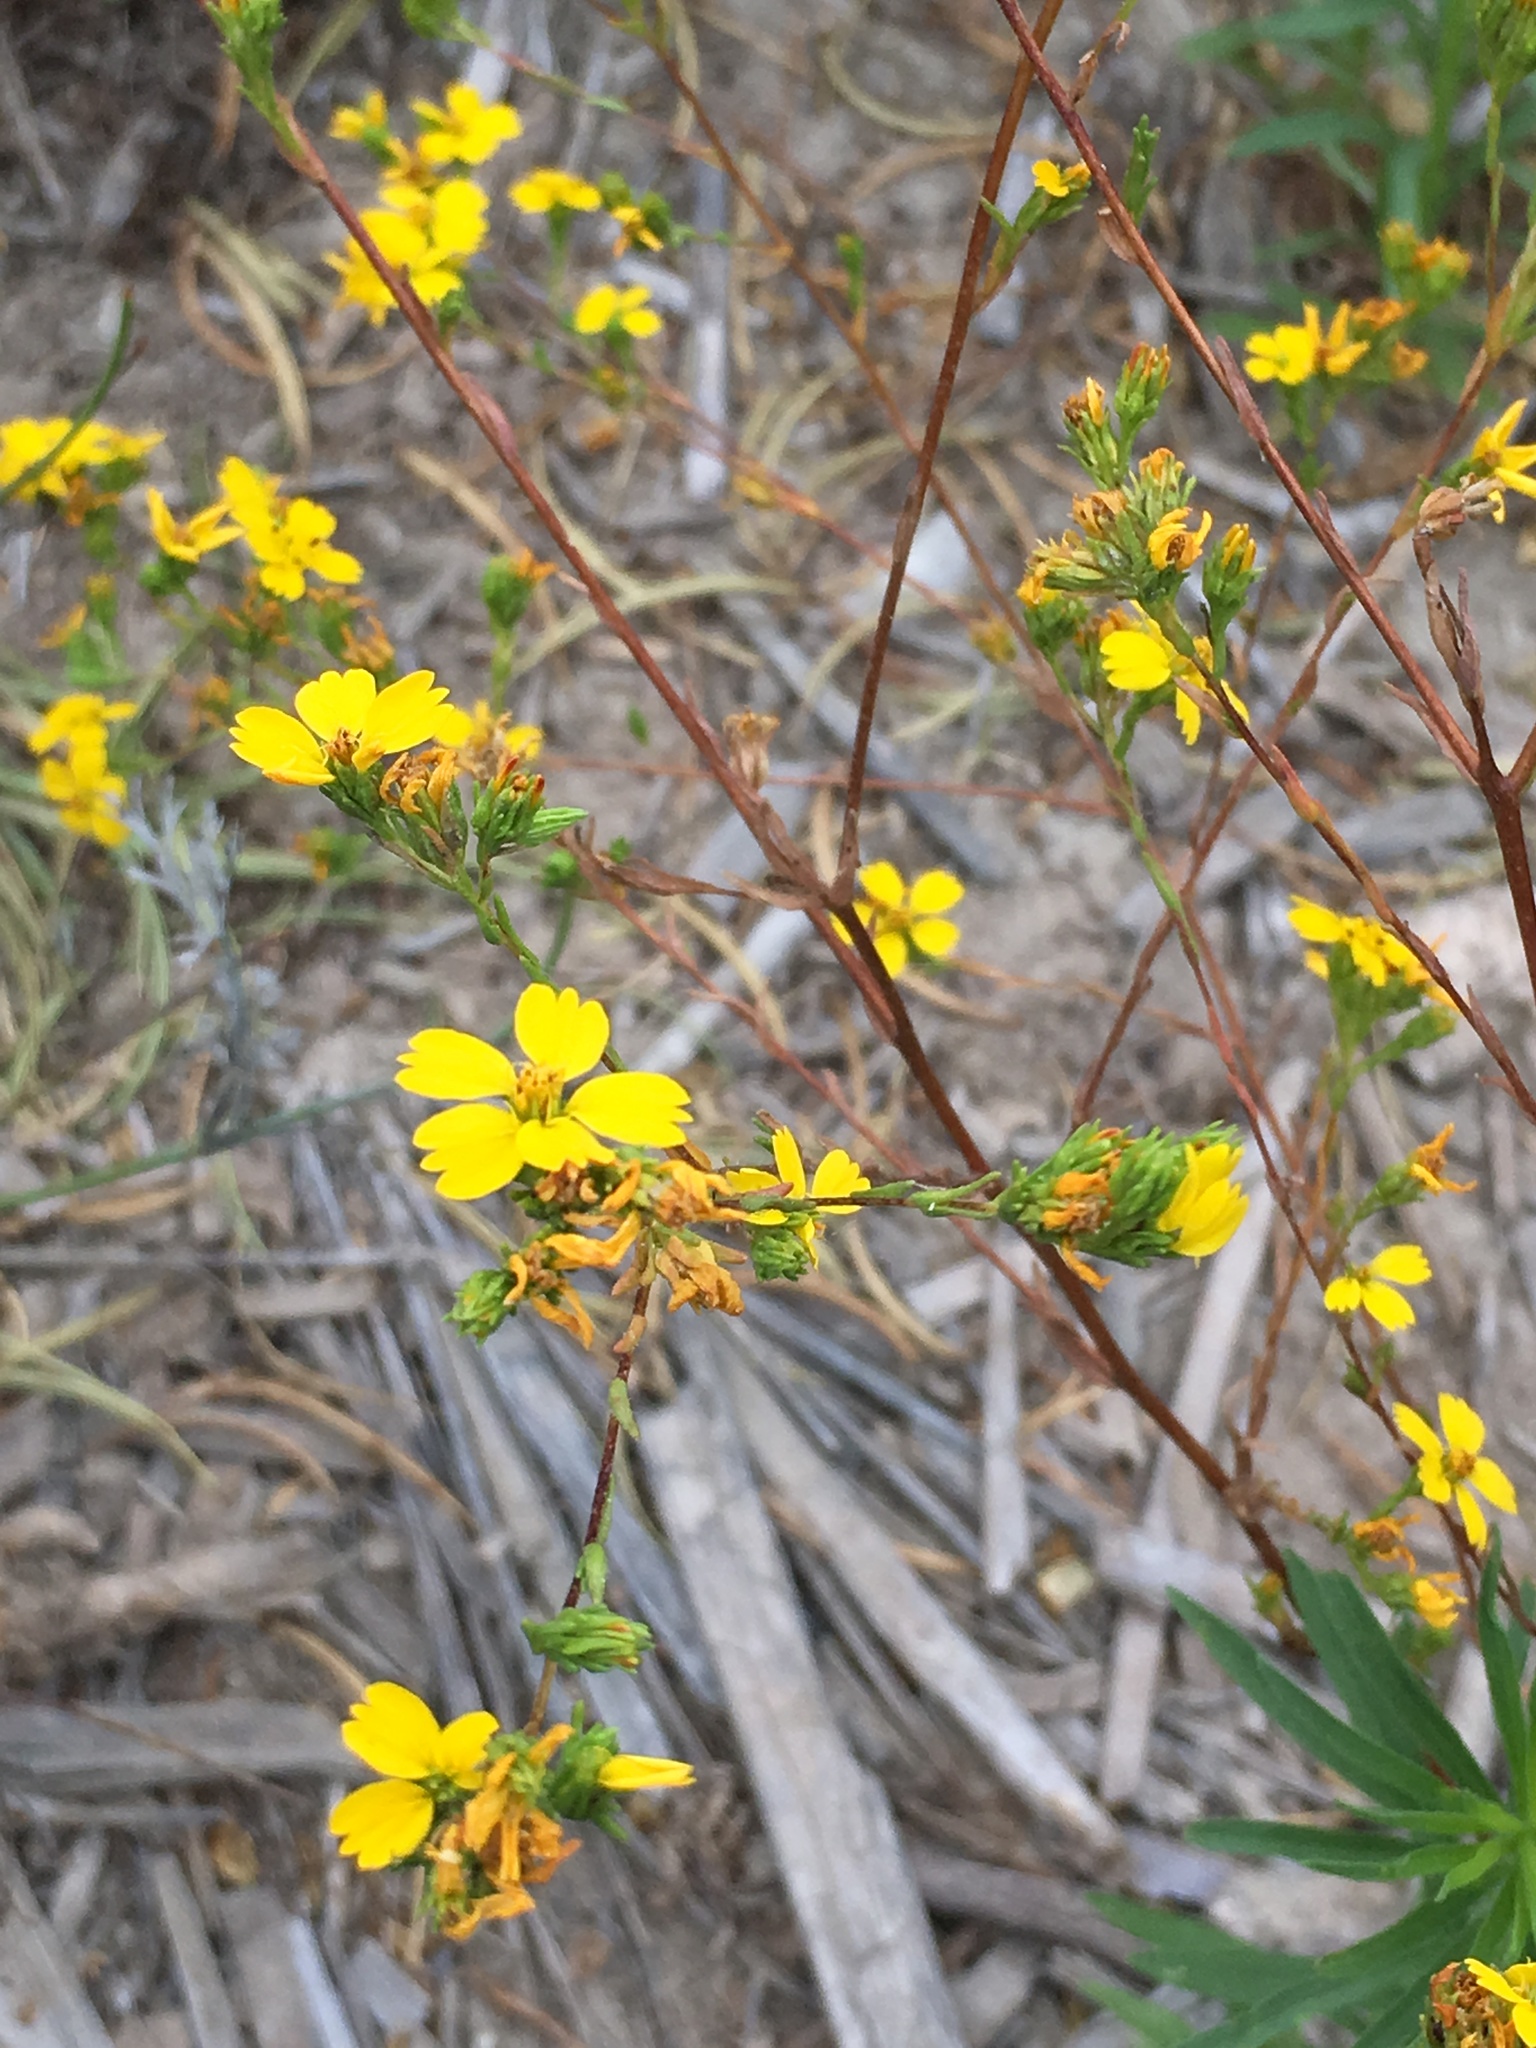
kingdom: Plantae
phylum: Tracheophyta
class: Magnoliopsida
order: Asterales
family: Asteraceae
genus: Deinandra
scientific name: Deinandra fasciculata
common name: Clustered tarweed
